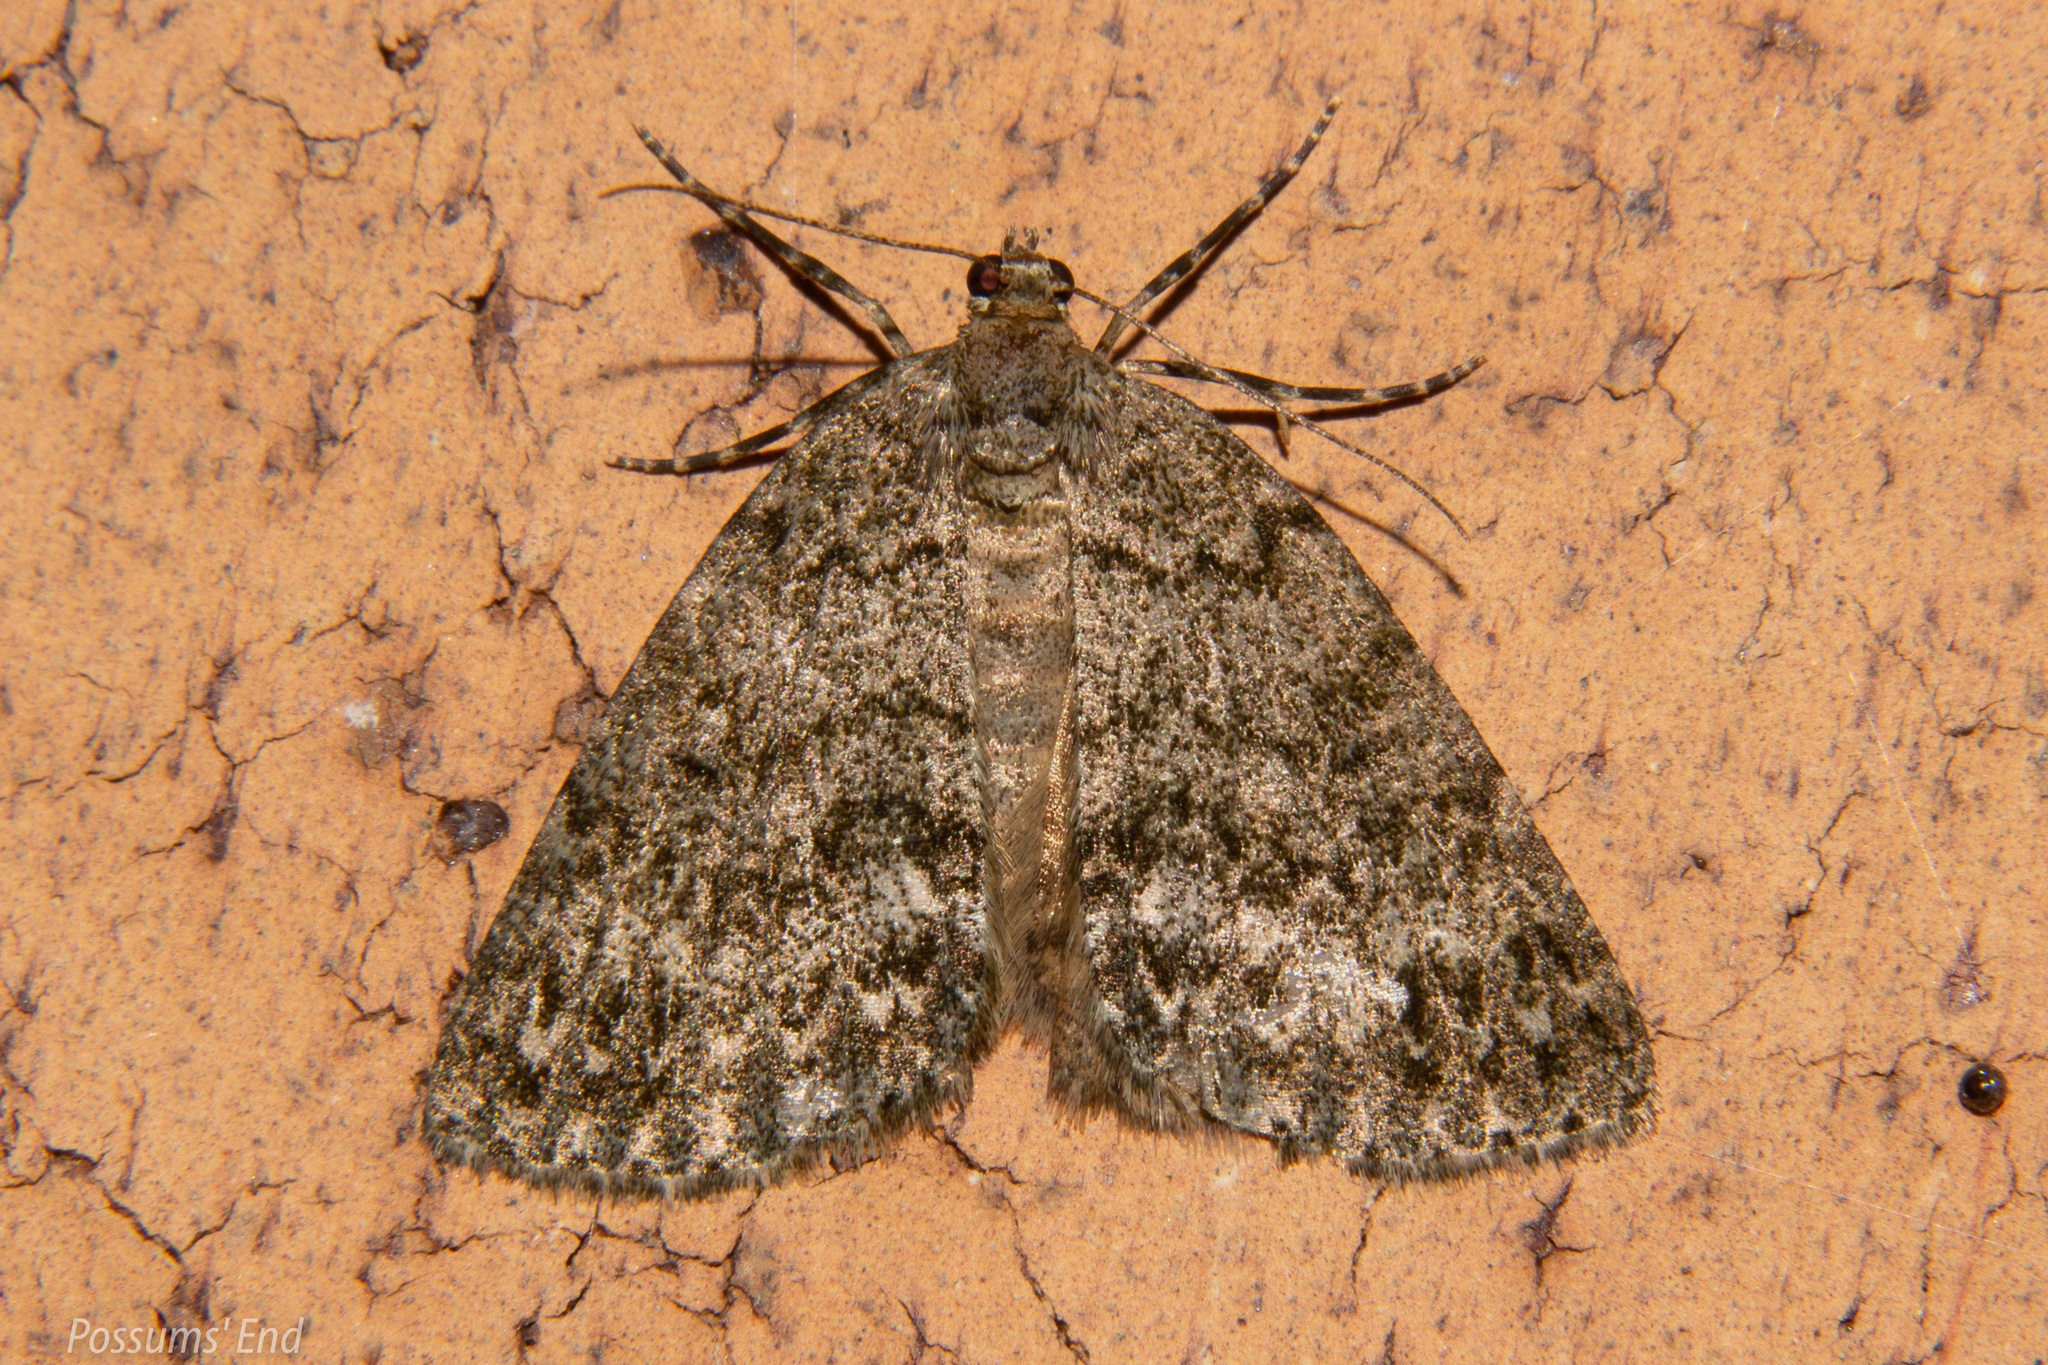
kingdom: Animalia
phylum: Arthropoda
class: Insecta
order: Lepidoptera
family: Geometridae
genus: Pseudocoremia
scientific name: Pseudocoremia indistincta
